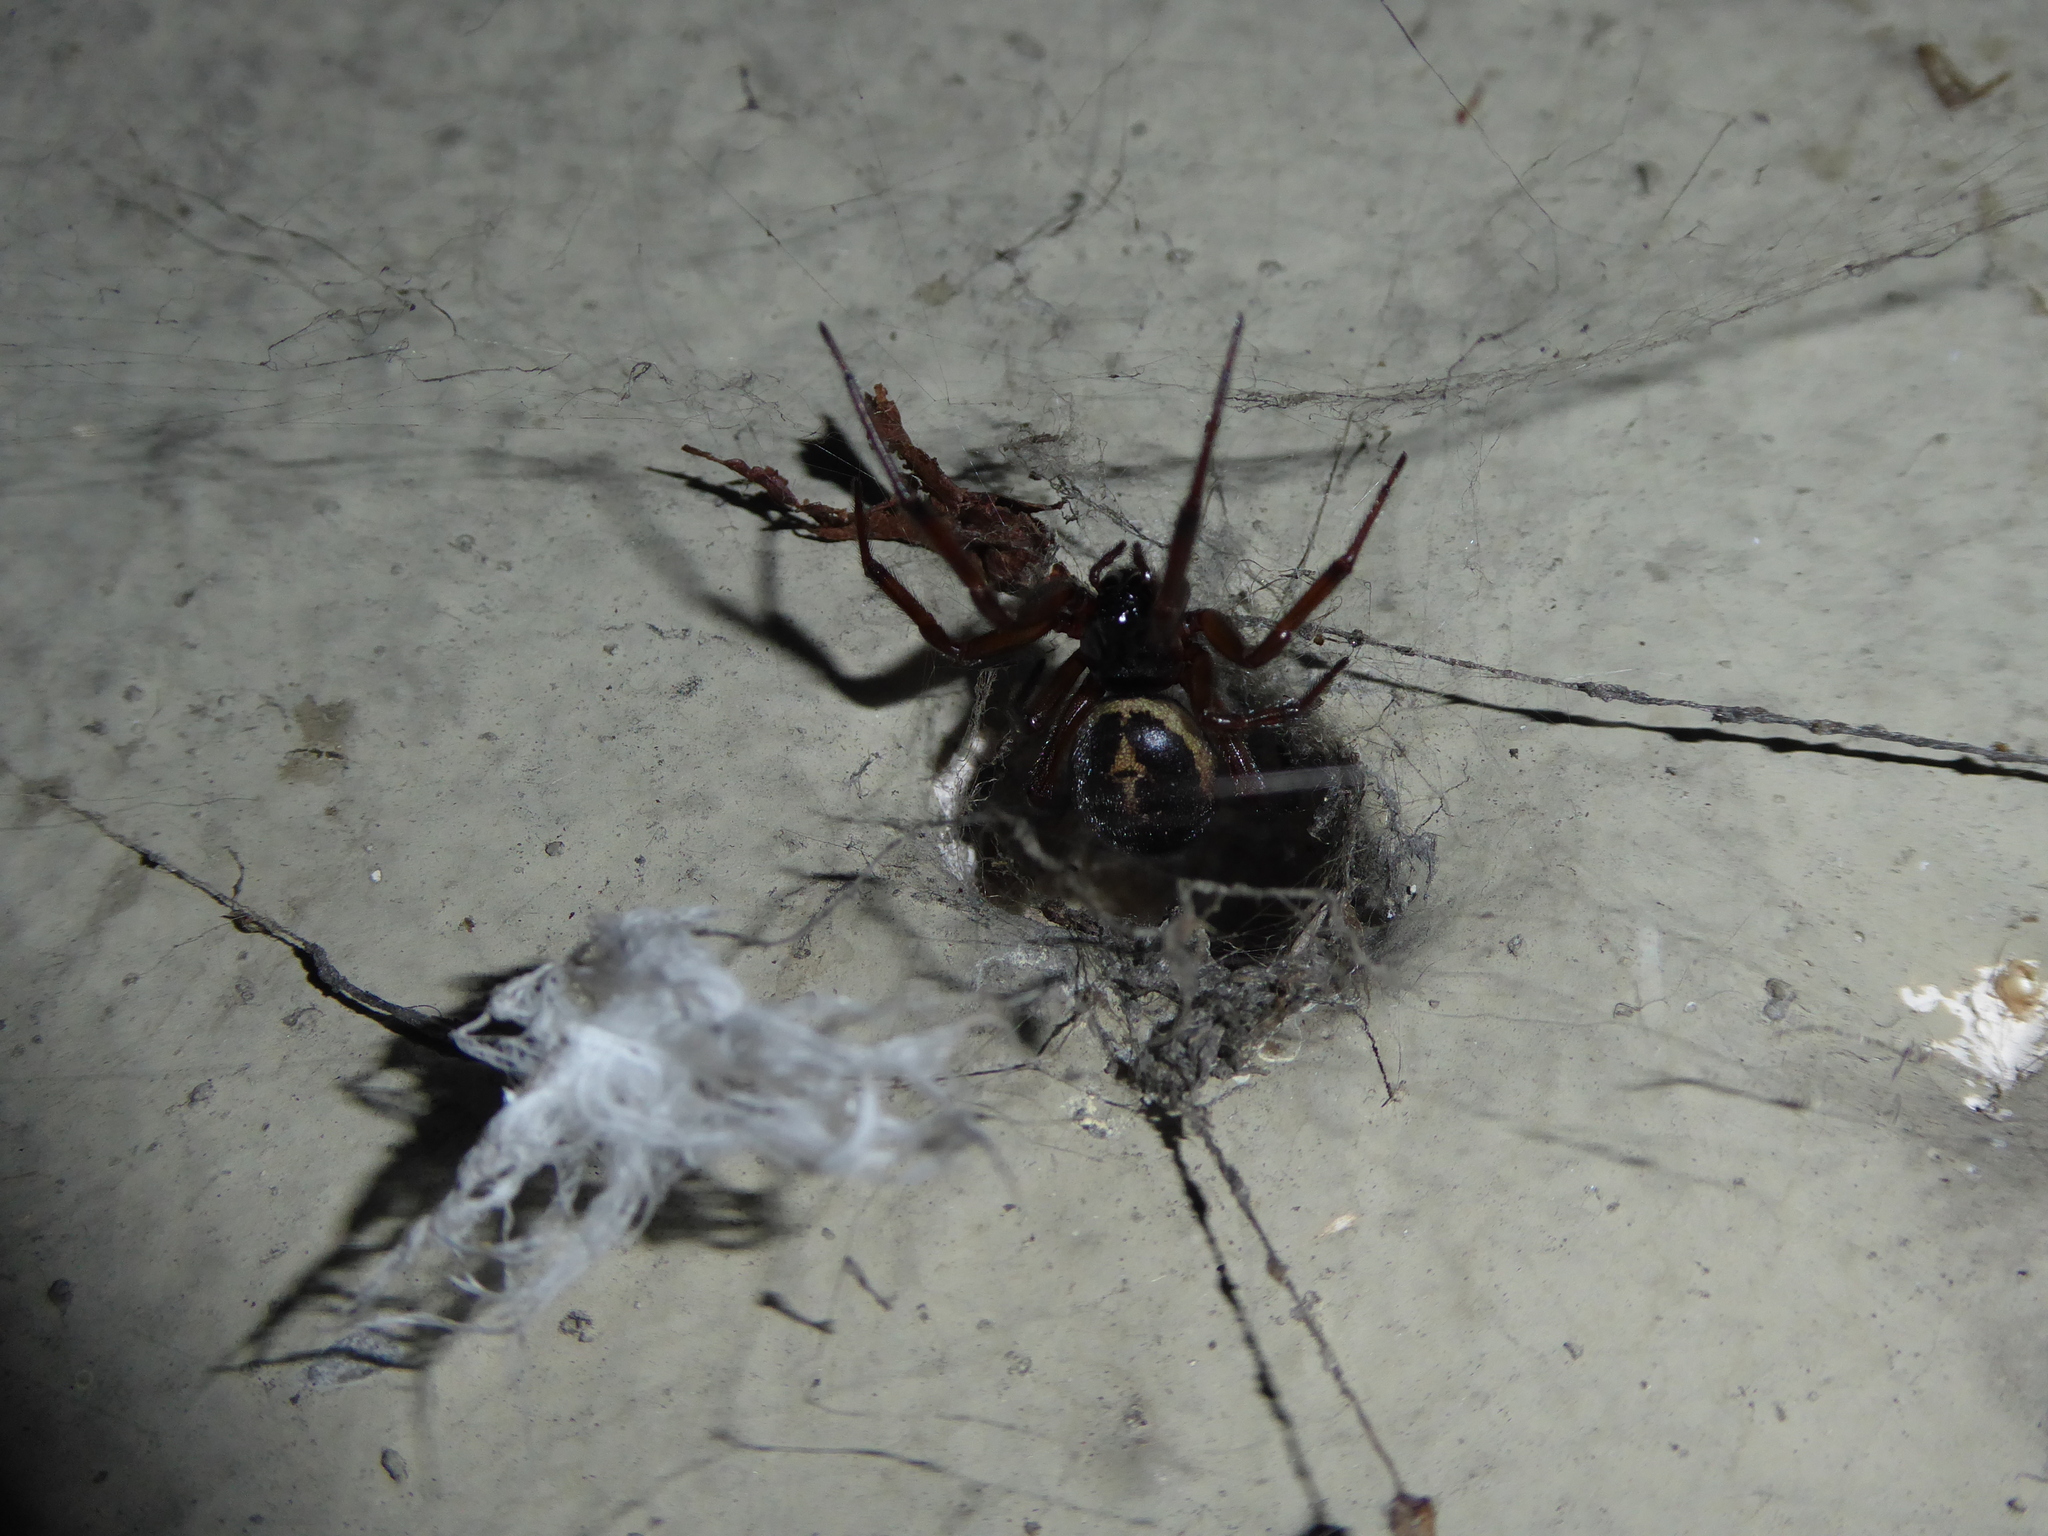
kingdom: Animalia
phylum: Arthropoda
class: Arachnida
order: Araneae
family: Theridiidae
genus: Steatoda
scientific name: Steatoda nobilis
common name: Cobweb weaver
